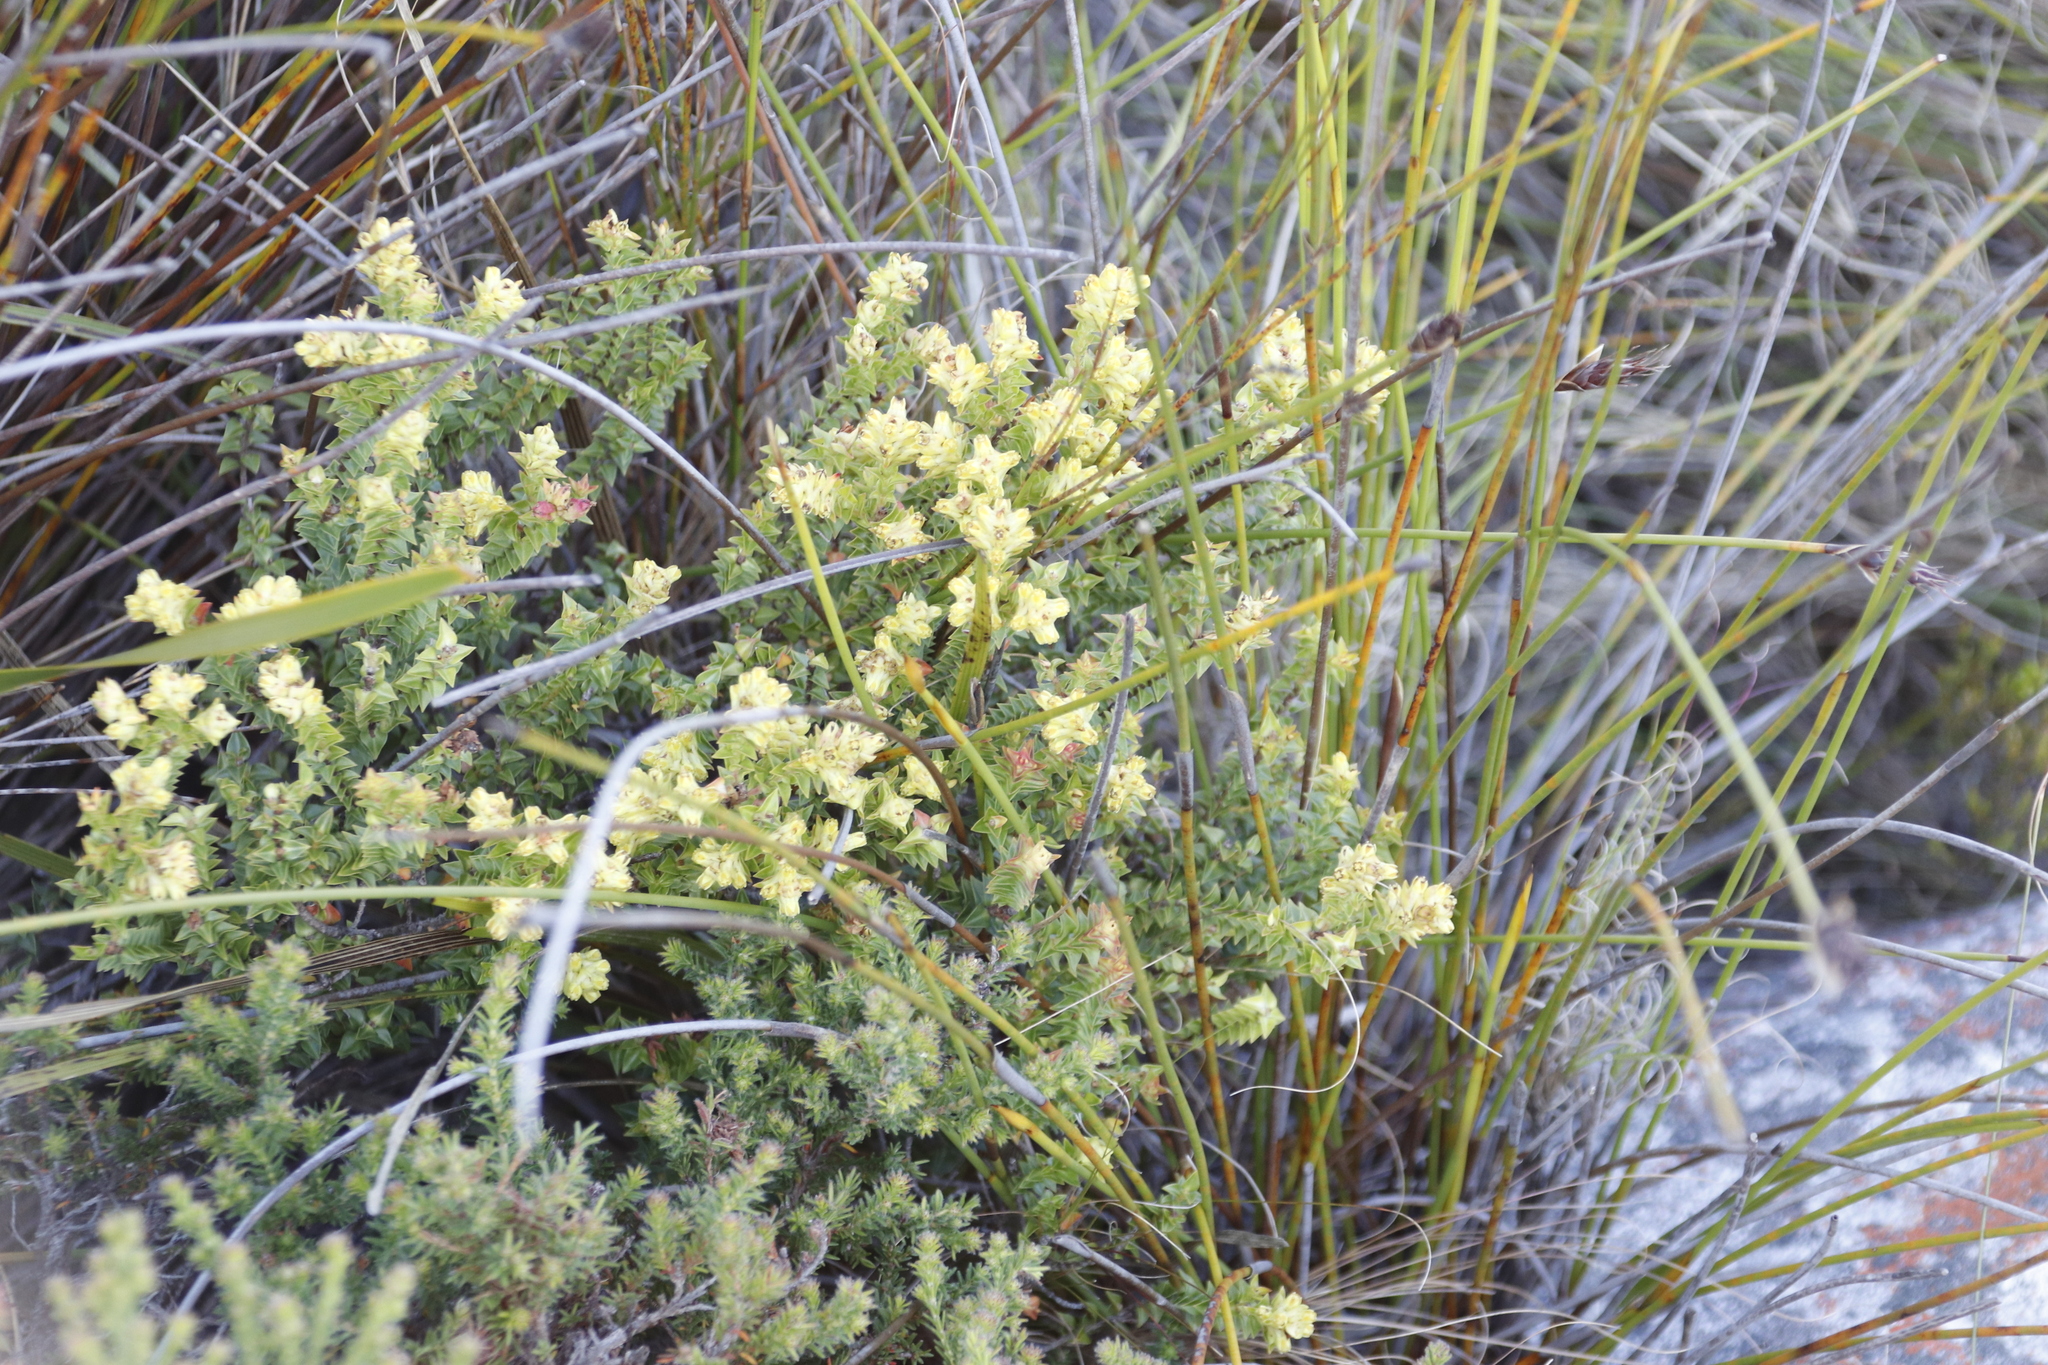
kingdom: Plantae
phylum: Tracheophyta
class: Magnoliopsida
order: Myrtales
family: Penaeaceae
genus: Penaea
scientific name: Penaea mucronata
